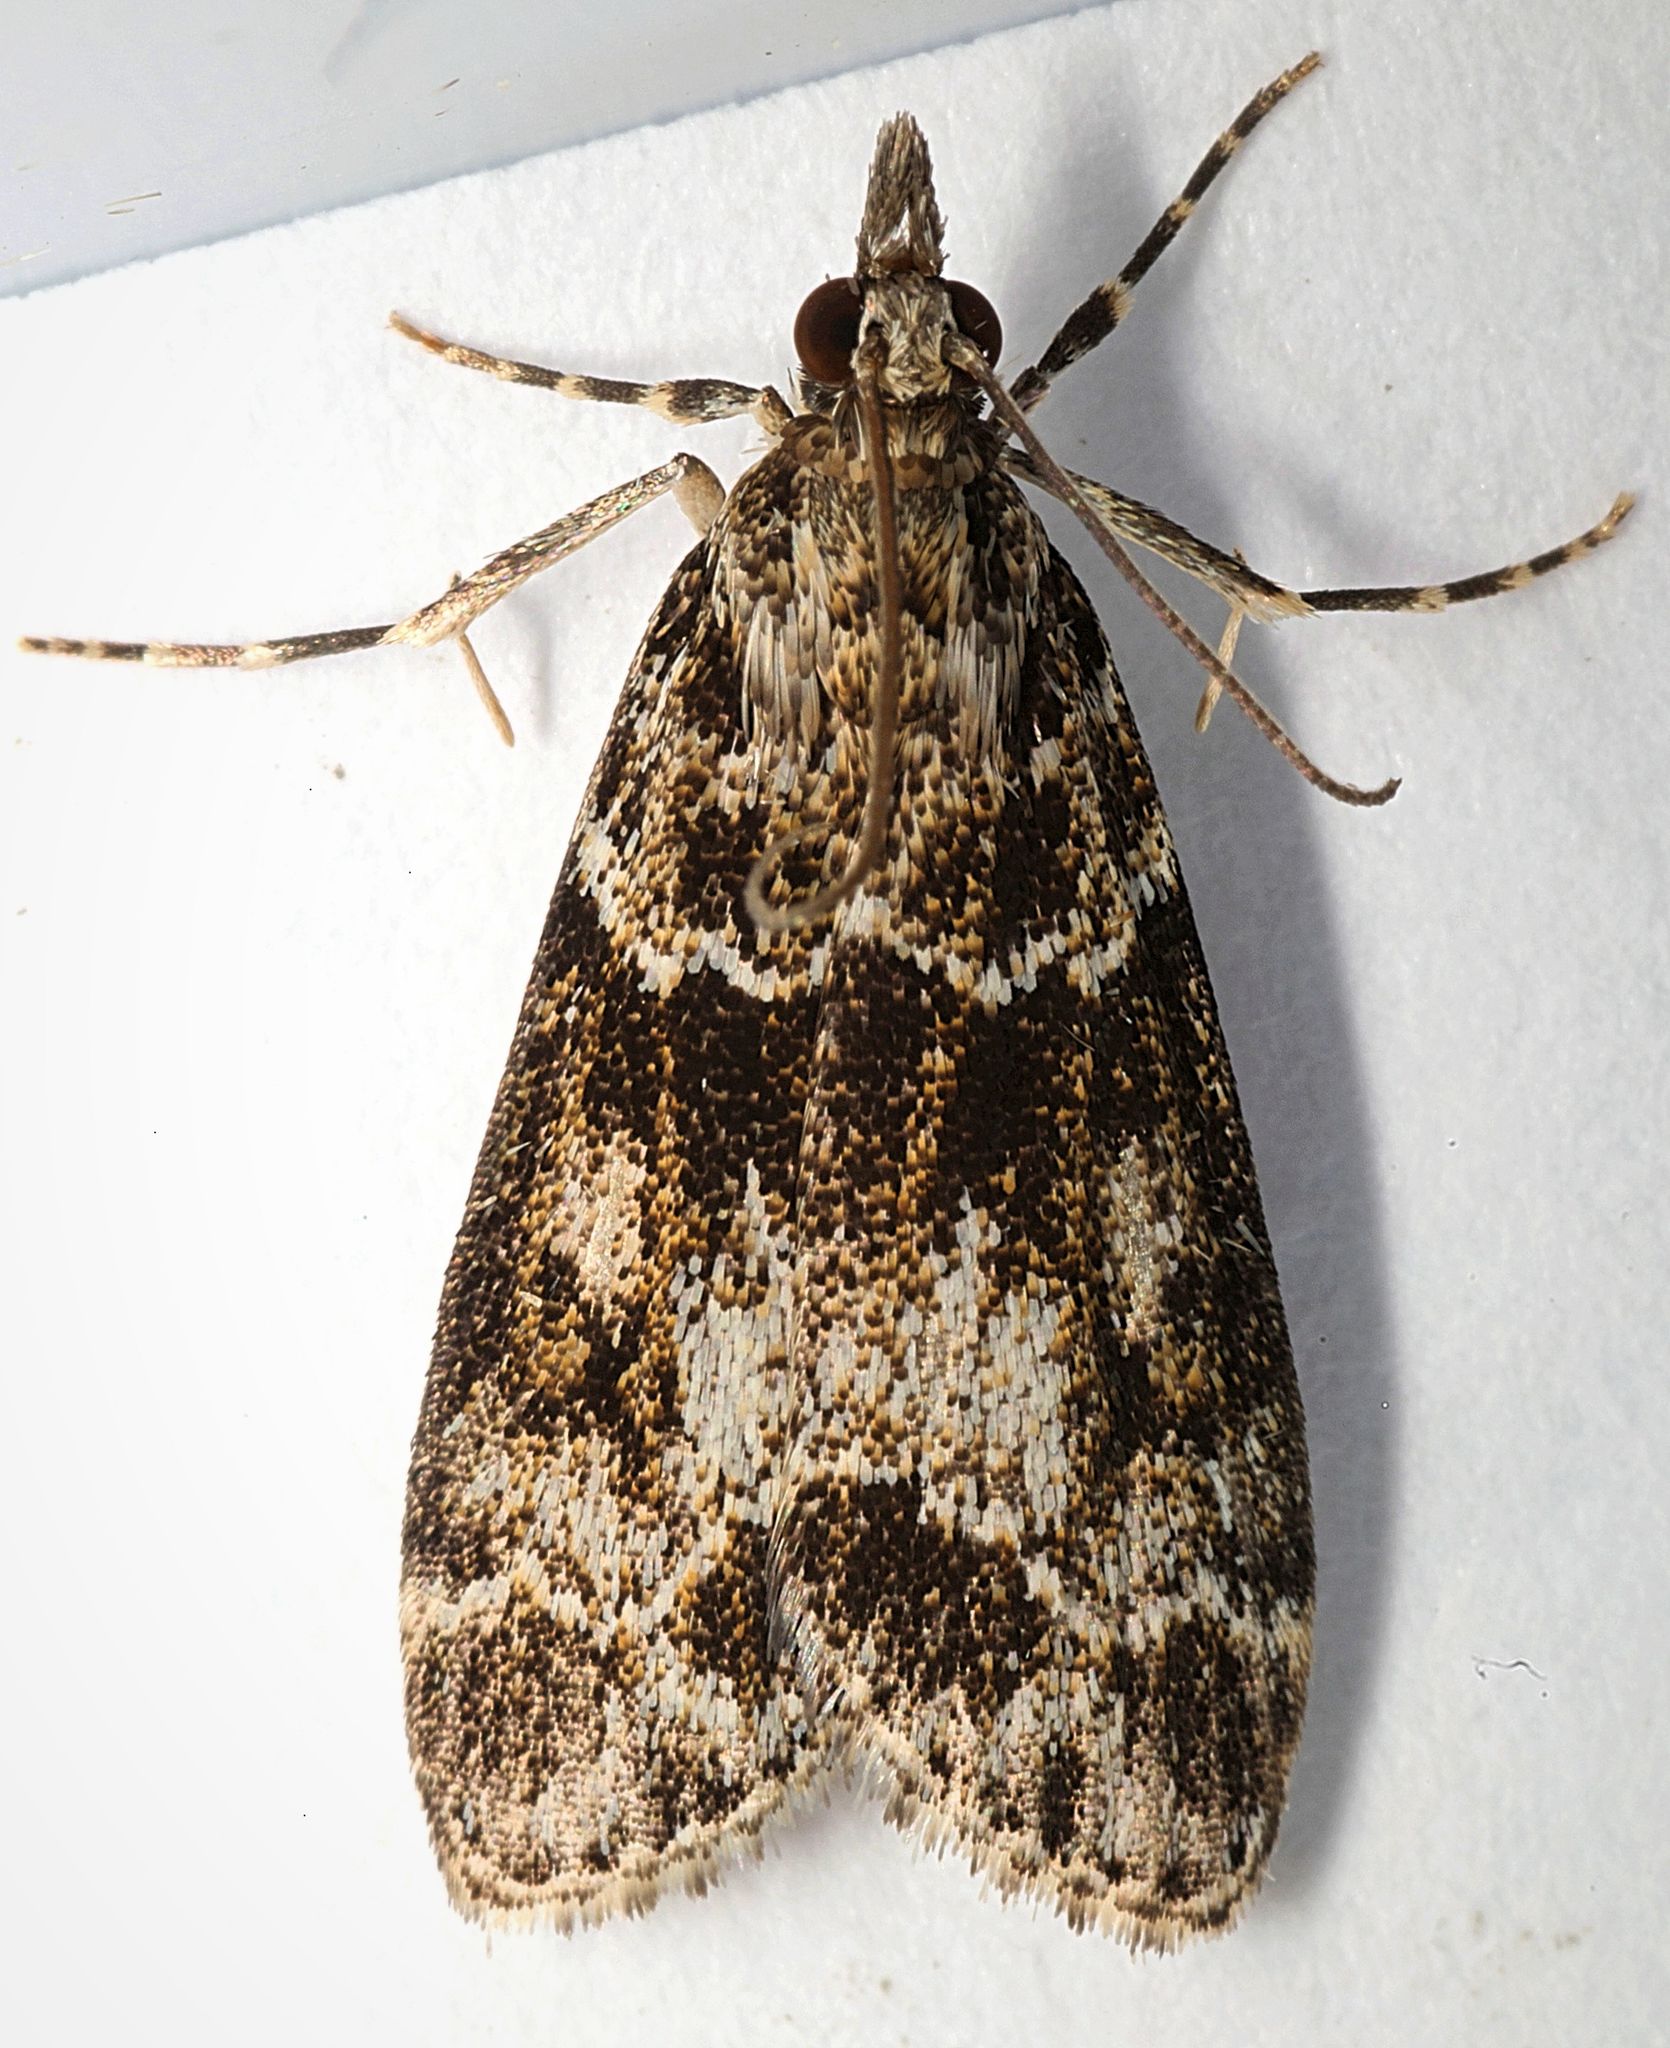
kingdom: Animalia
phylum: Arthropoda
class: Insecta
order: Lepidoptera
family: Crambidae
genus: Eudonia
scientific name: Eudonia mercurella
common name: Small grey
